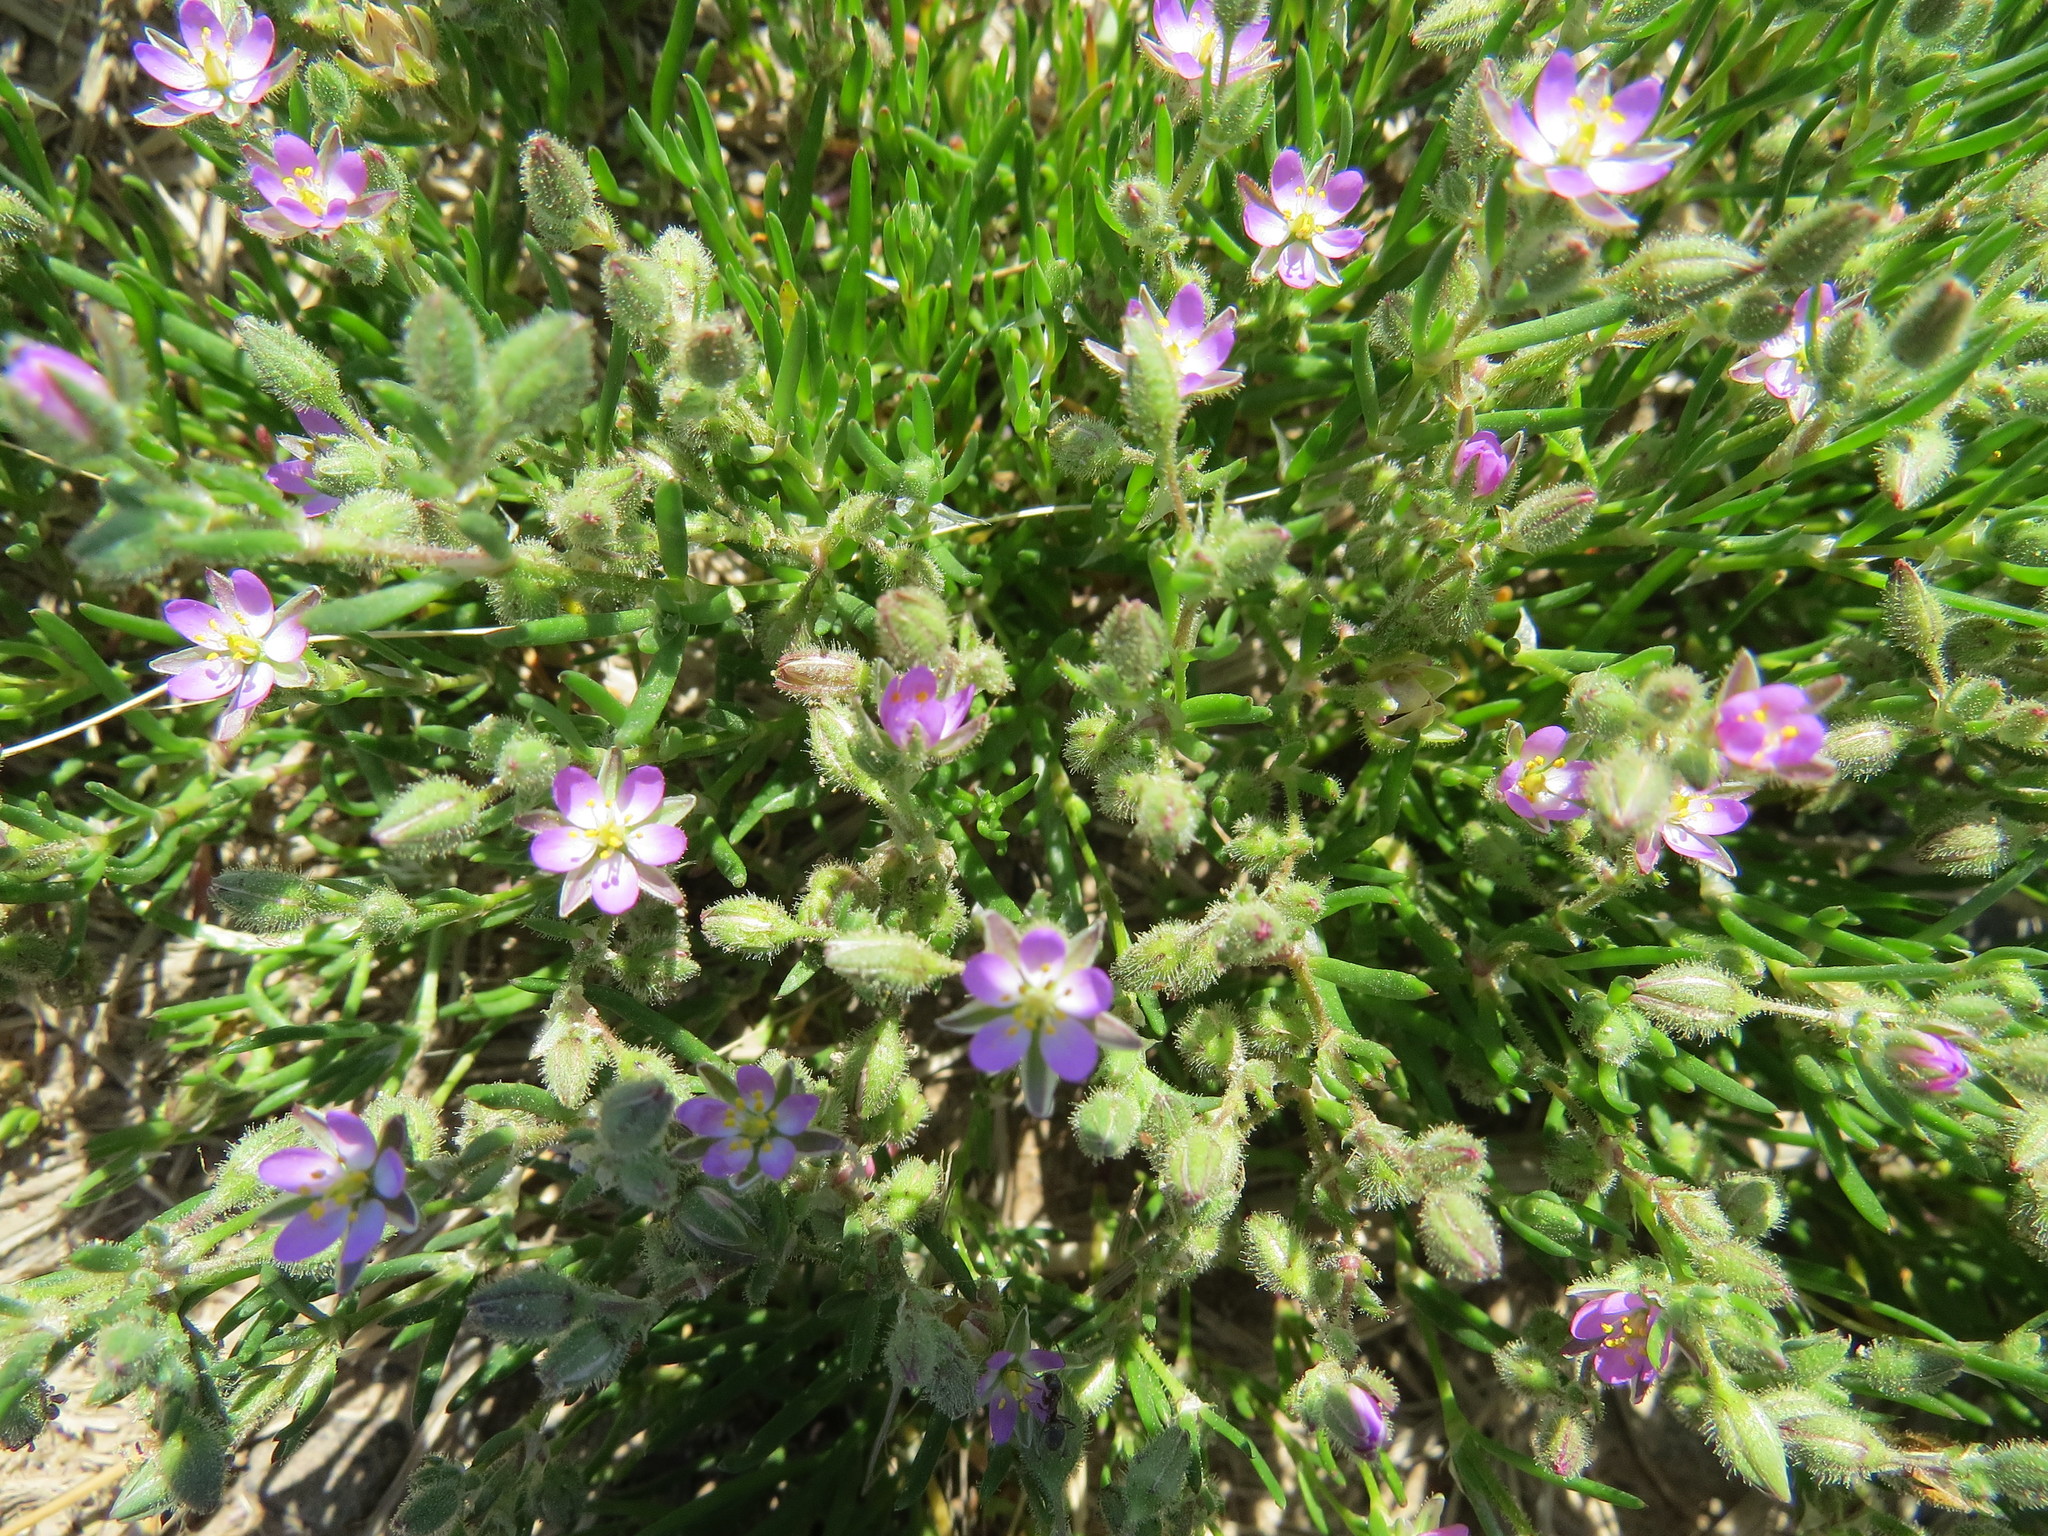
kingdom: Plantae
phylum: Tracheophyta
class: Magnoliopsida
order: Caryophyllales
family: Caryophyllaceae
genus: Spergularia
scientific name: Spergularia rubra
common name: Red sand-spurrey
